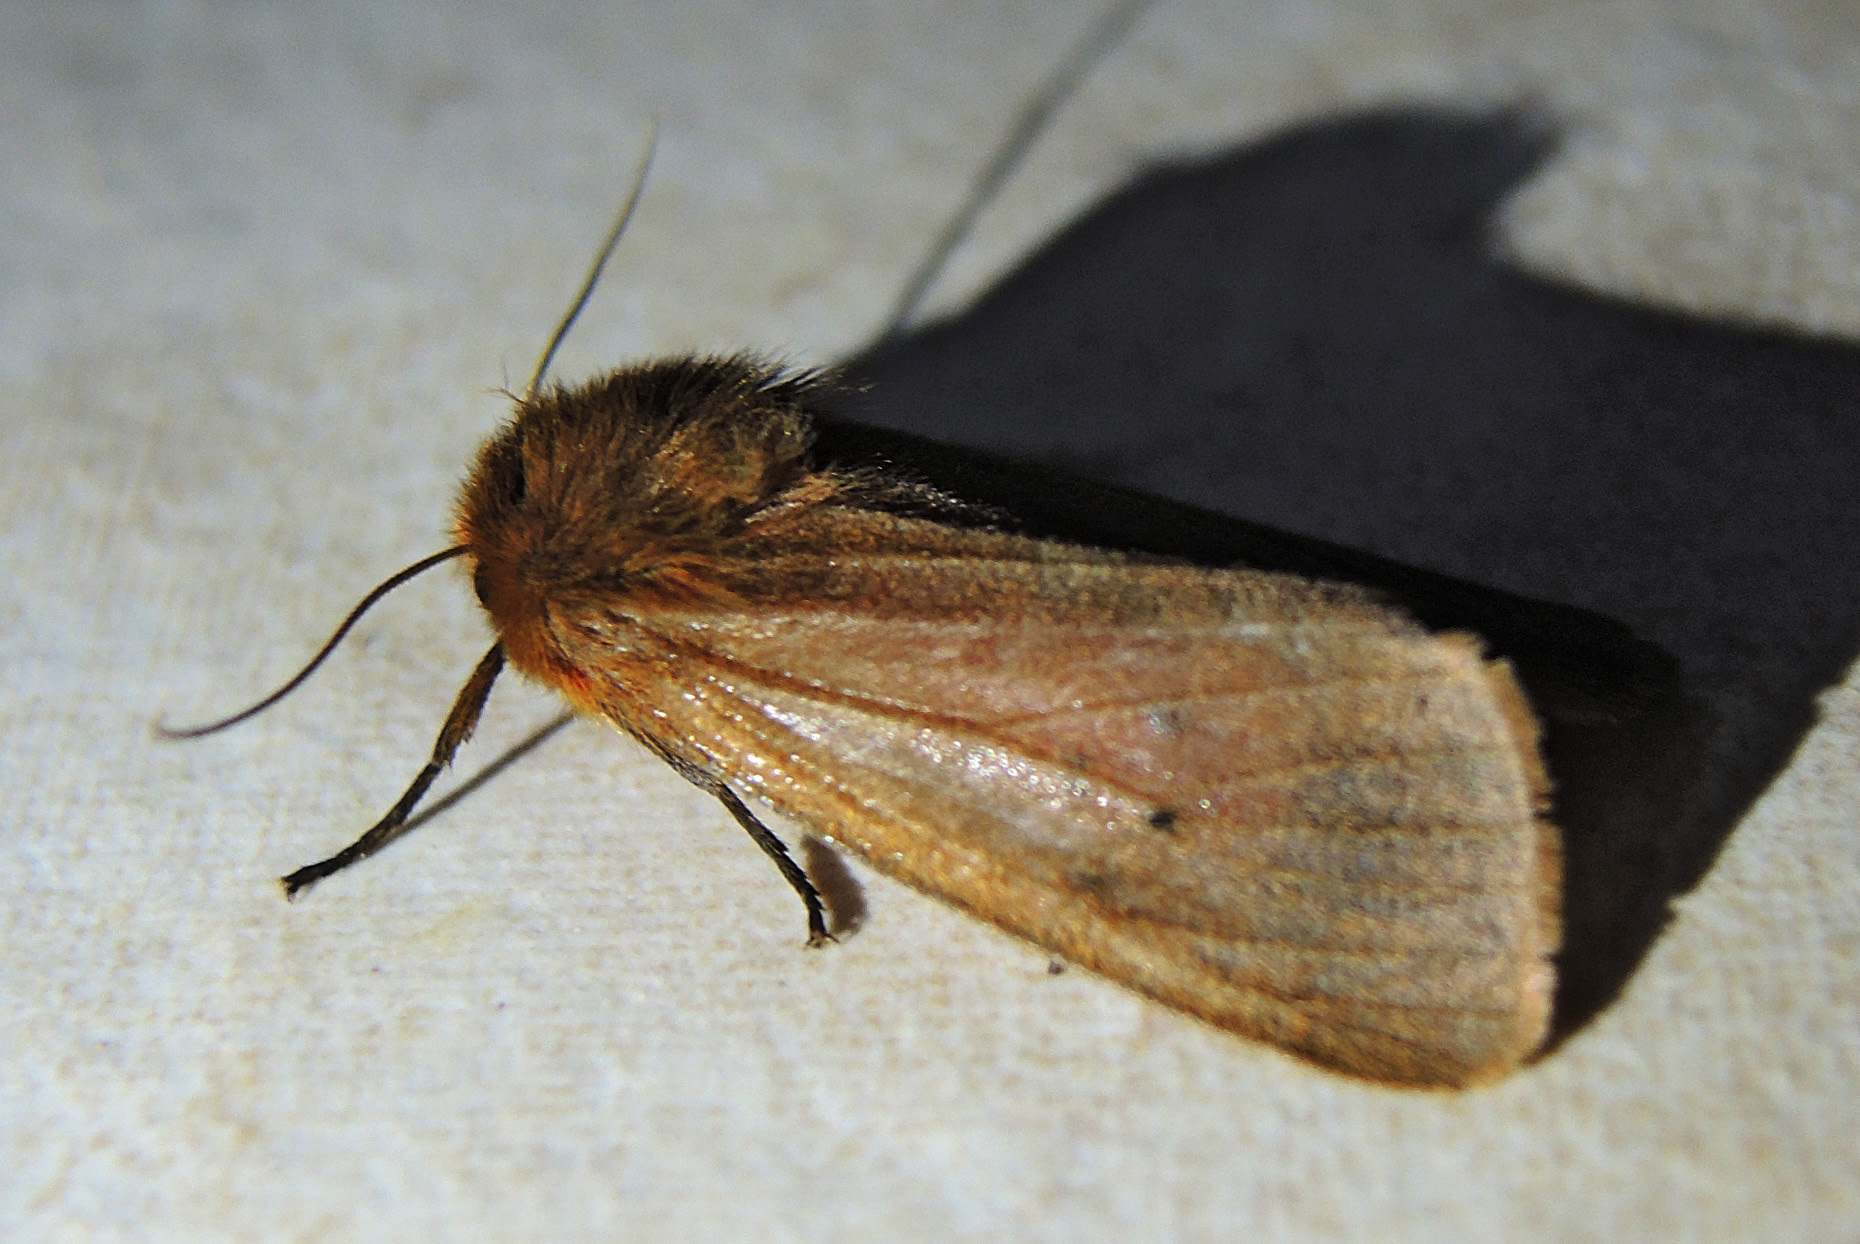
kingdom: Animalia
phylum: Arthropoda
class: Insecta
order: Lepidoptera
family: Erebidae
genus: Phragmatobia
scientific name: Phragmatobia fuliginosa
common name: Ruby tiger
